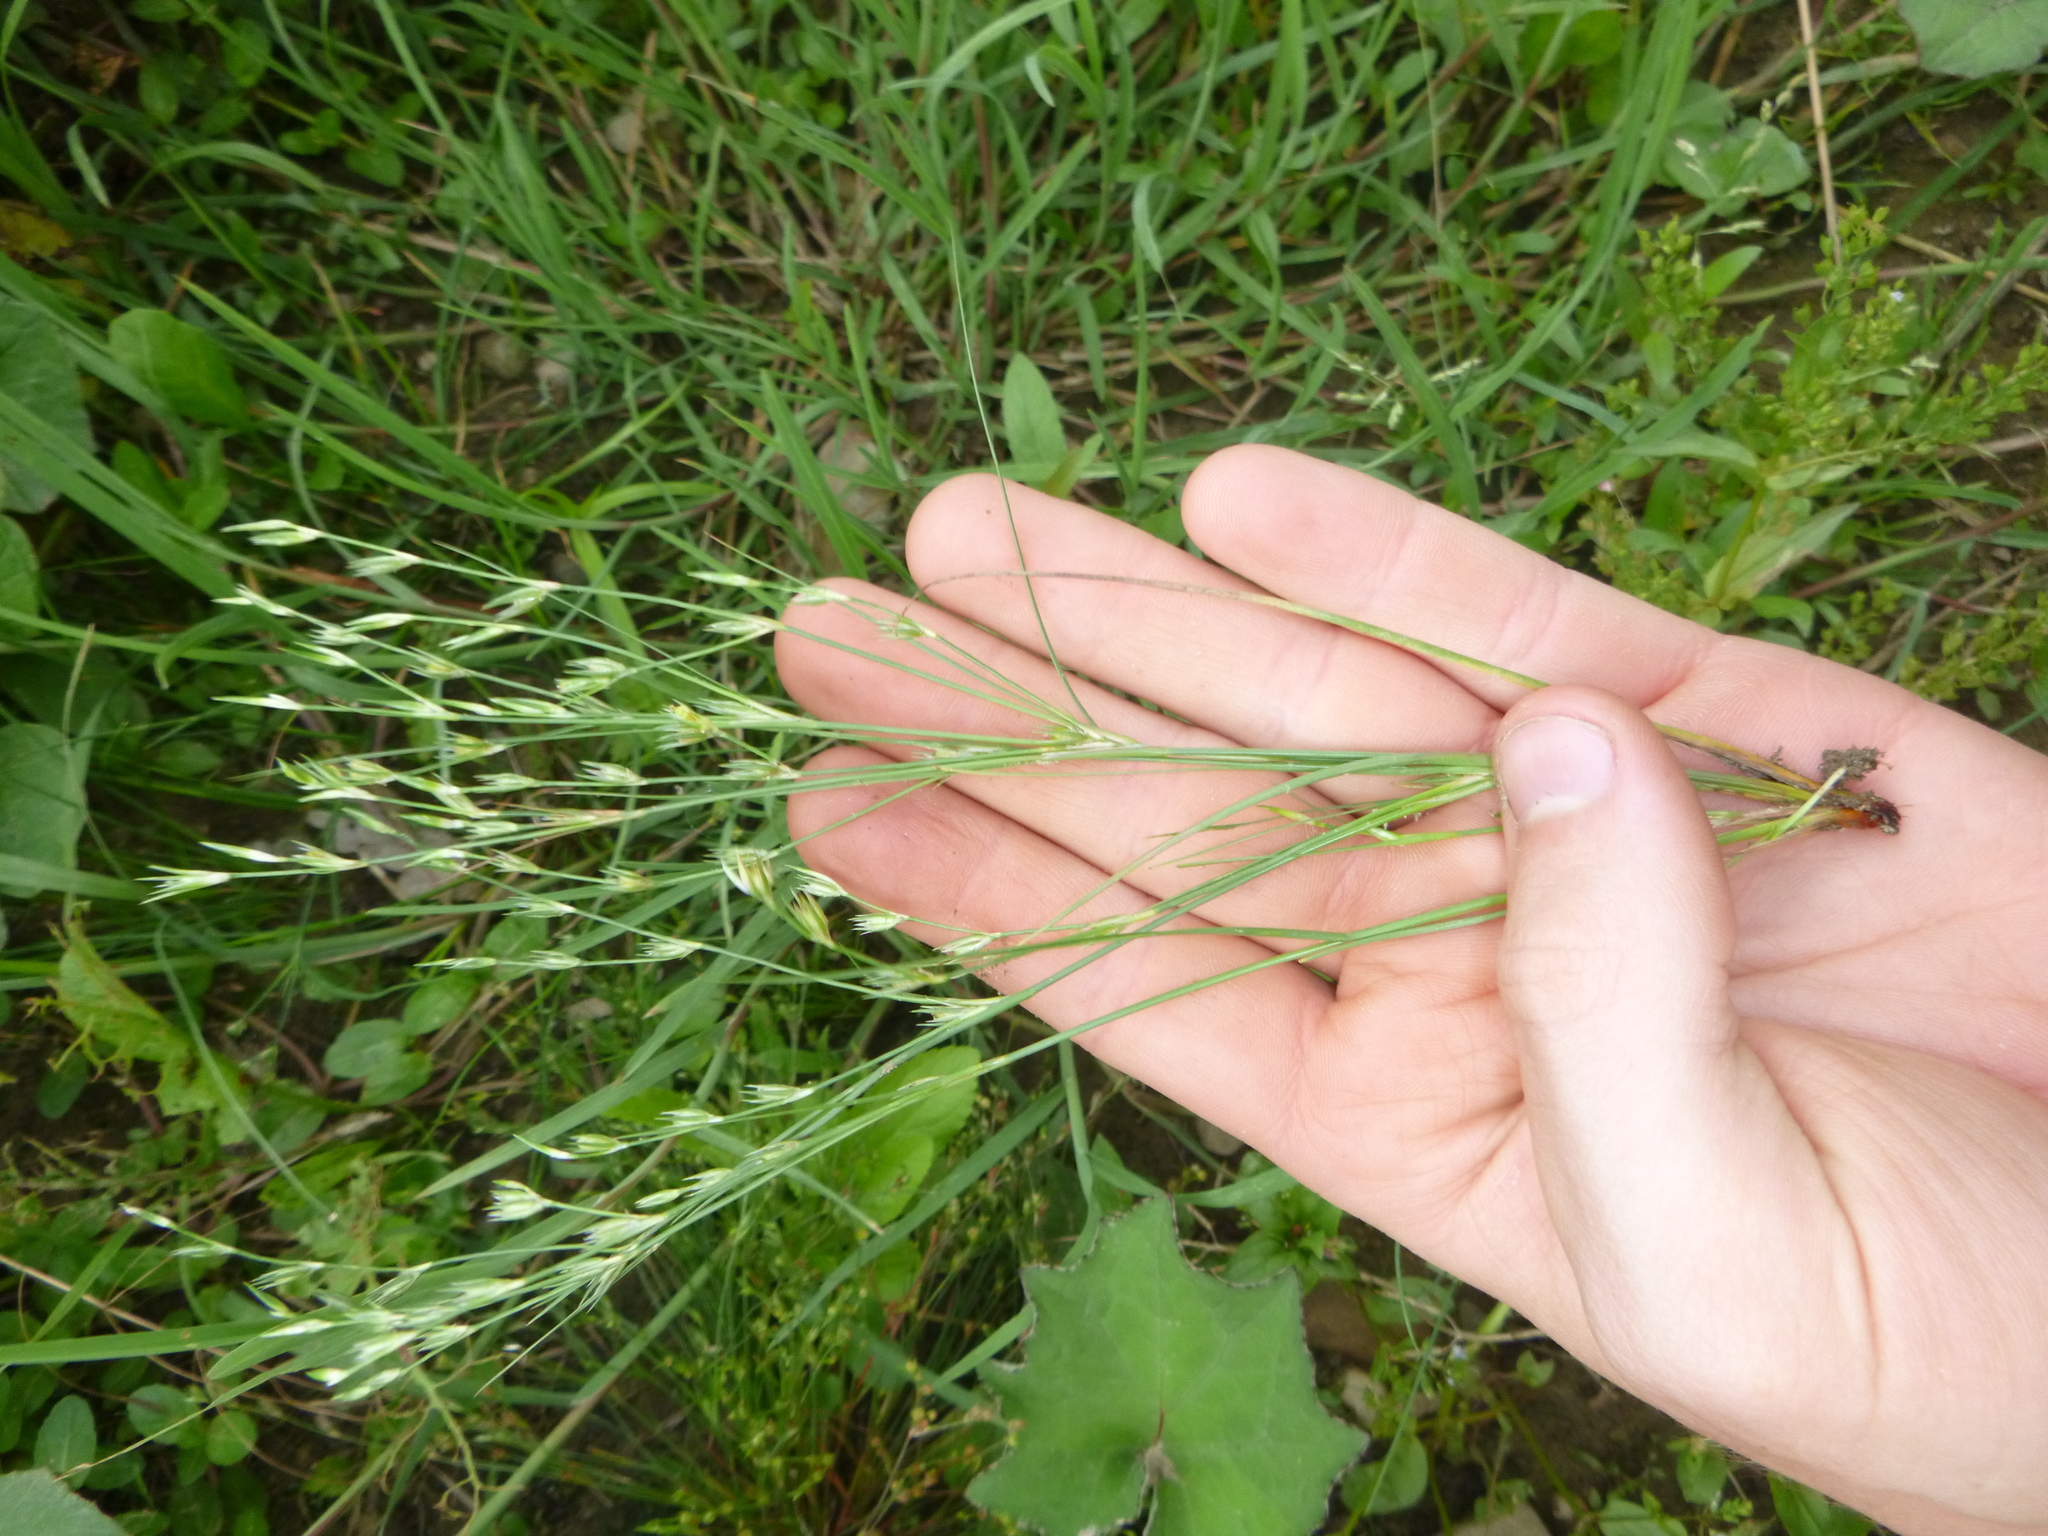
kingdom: Plantae
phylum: Tracheophyta
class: Liliopsida
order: Poales
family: Juncaceae
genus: Juncus
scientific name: Juncus bufonius
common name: Toad rush
